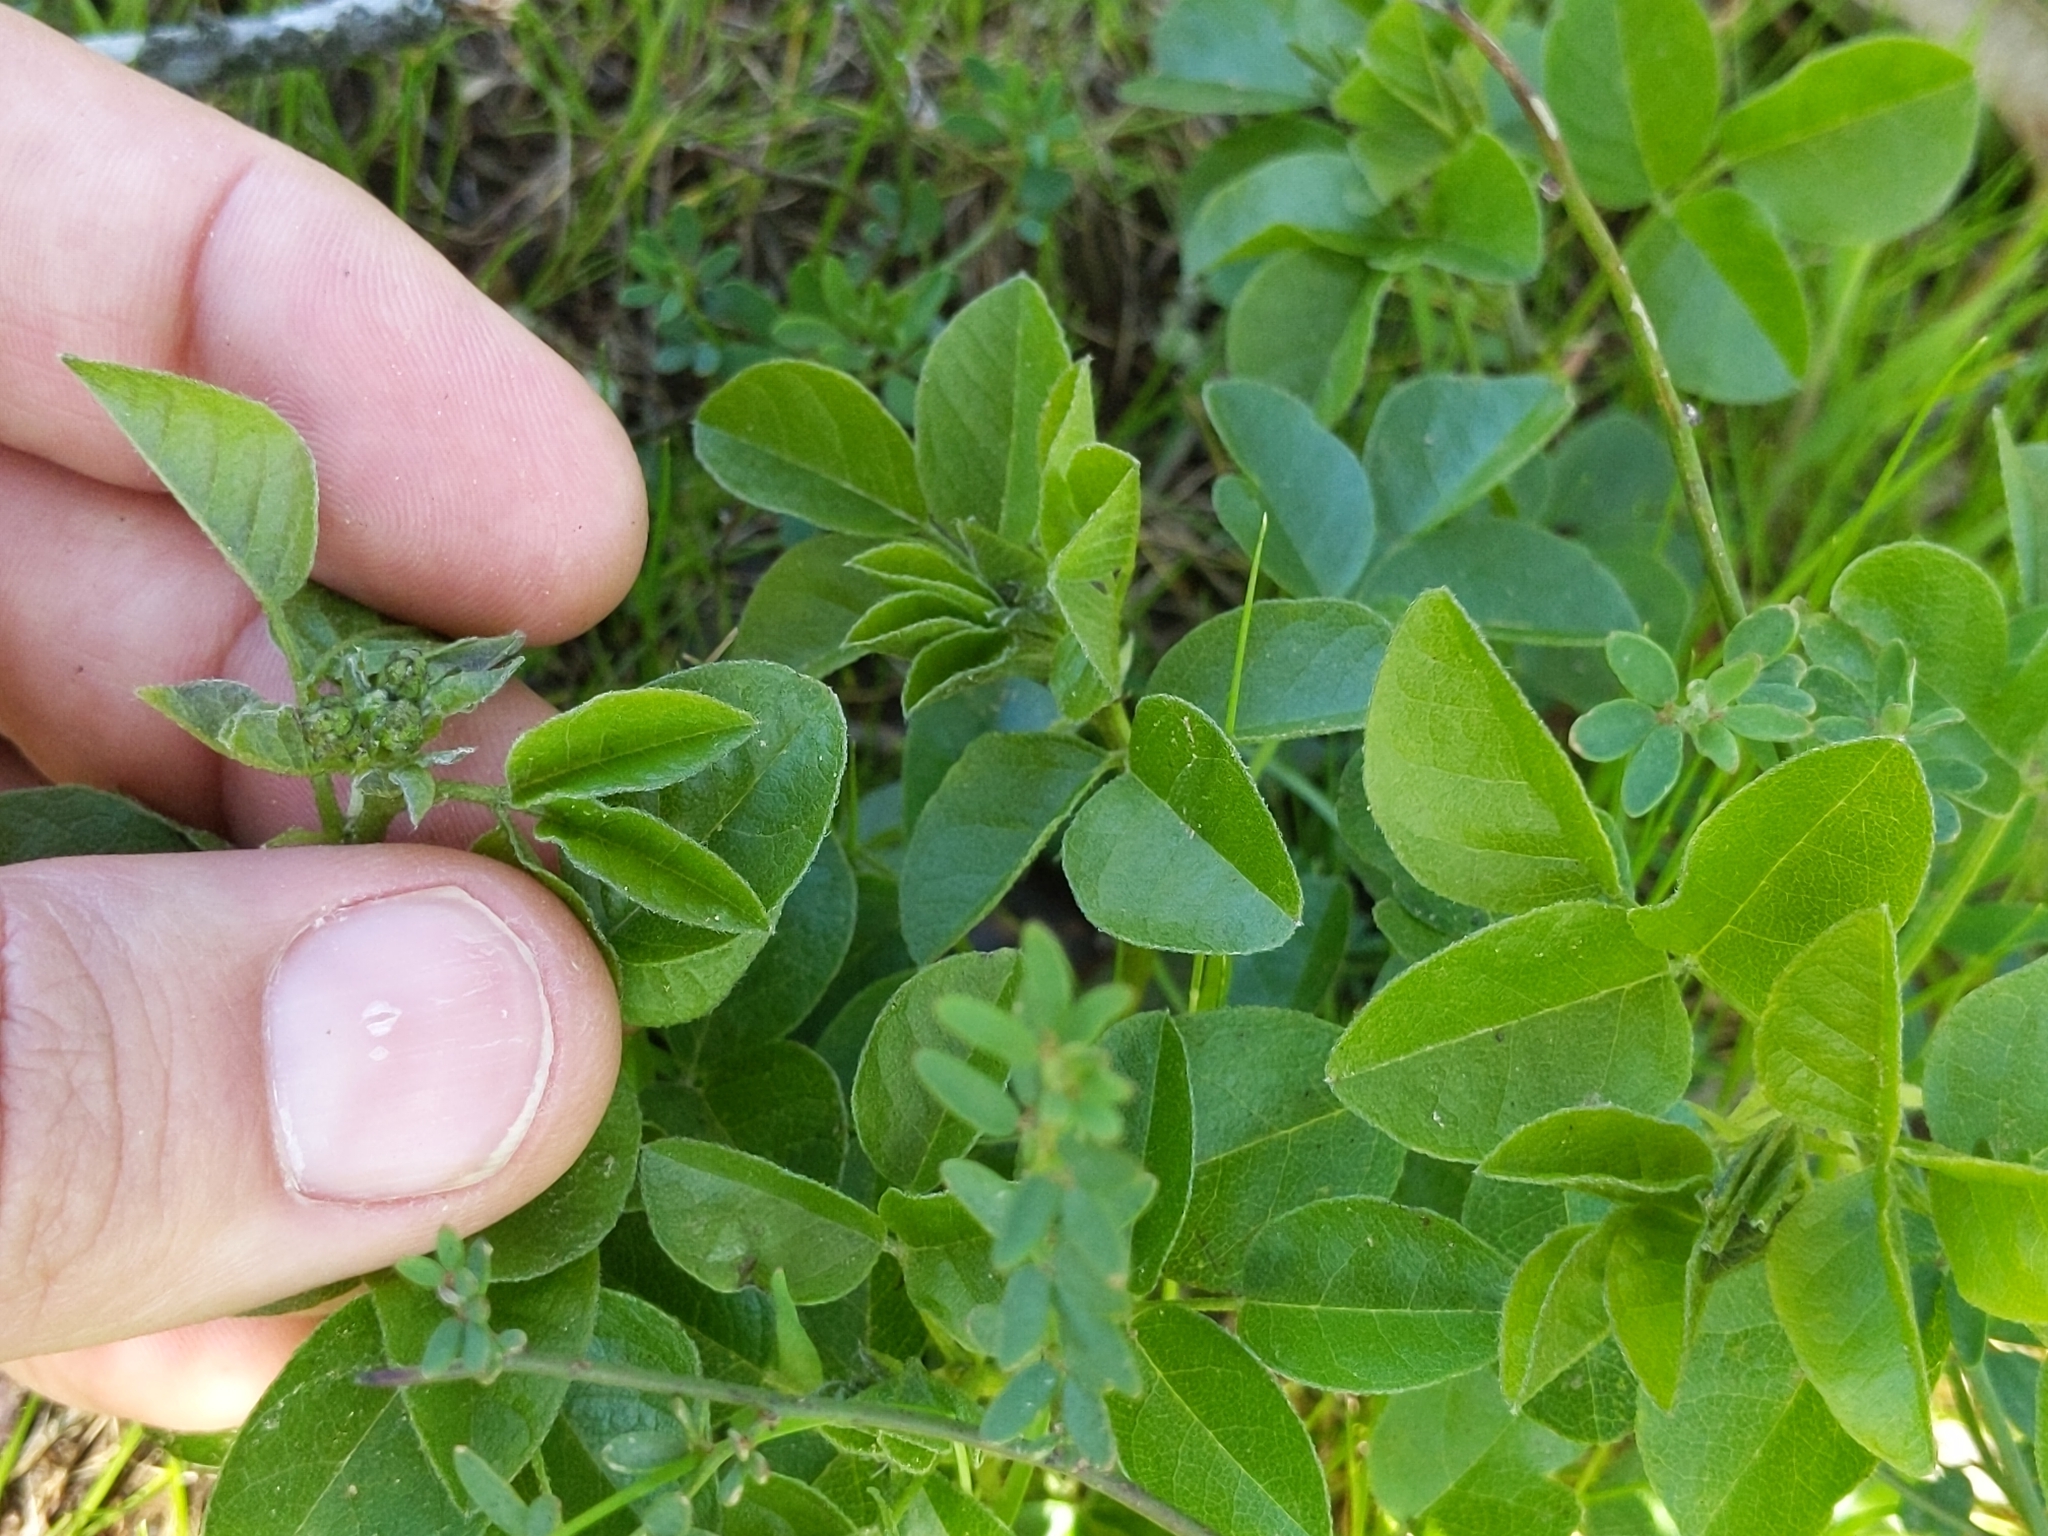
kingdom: Plantae
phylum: Tracheophyta
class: Magnoliopsida
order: Fabales
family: Fabaceae
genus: Rupertia
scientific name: Rupertia physodes
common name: California-tea
